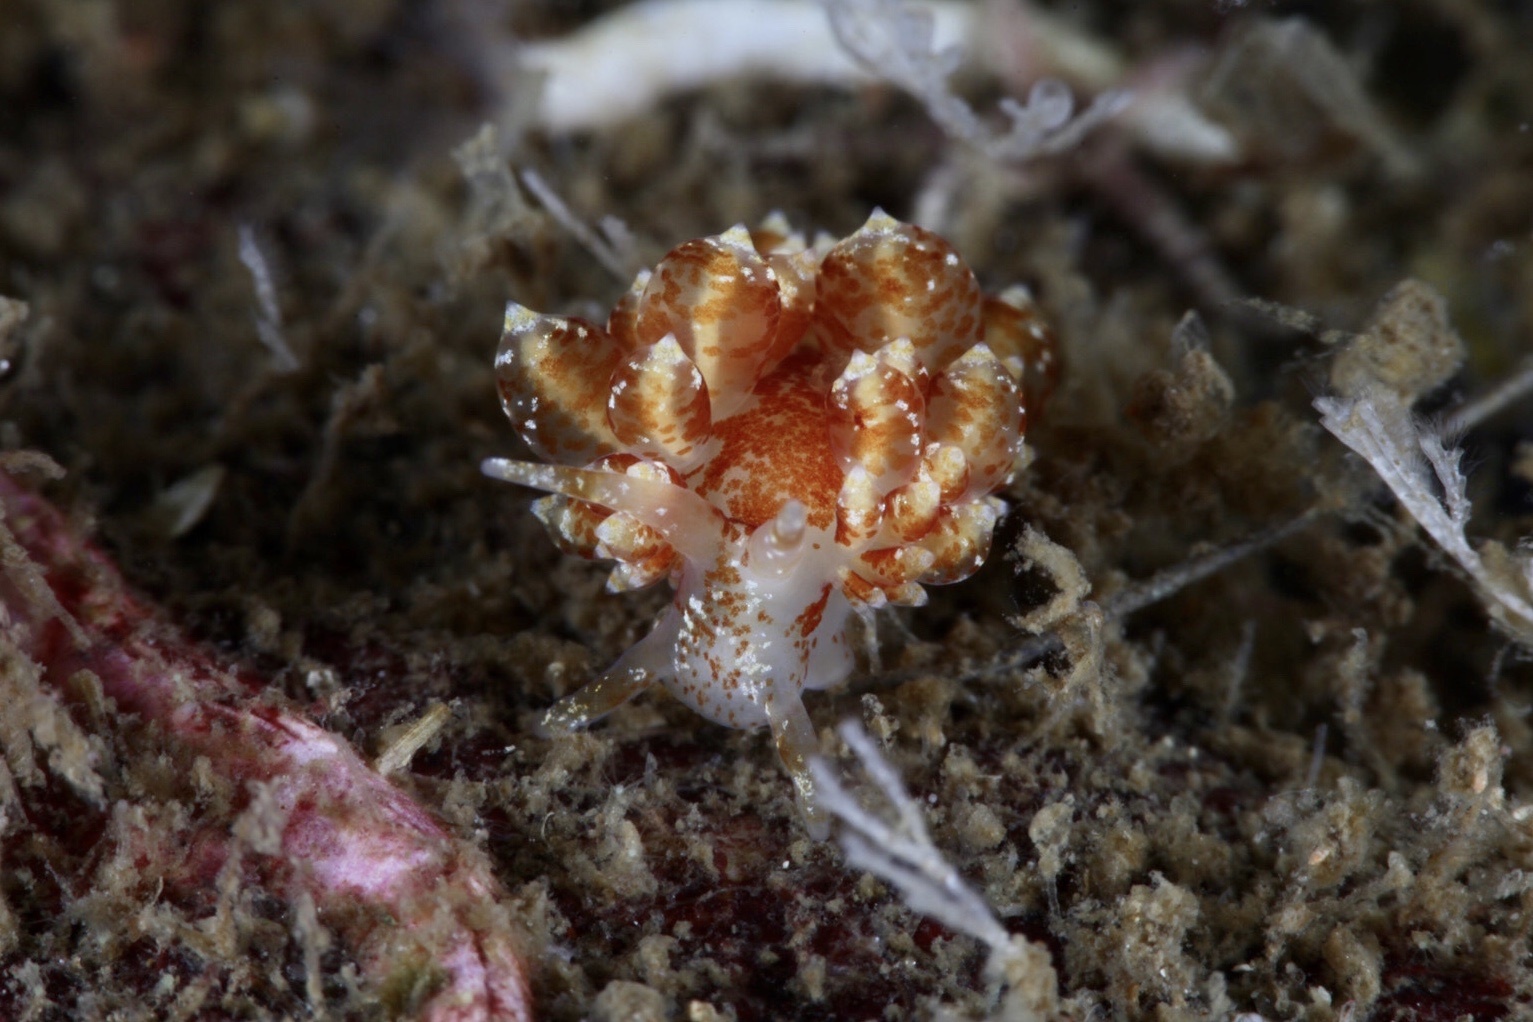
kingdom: Animalia
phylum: Mollusca
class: Gastropoda
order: Nudibranchia
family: Eubranchidae
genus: Amphorina
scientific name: Amphorina pallida
